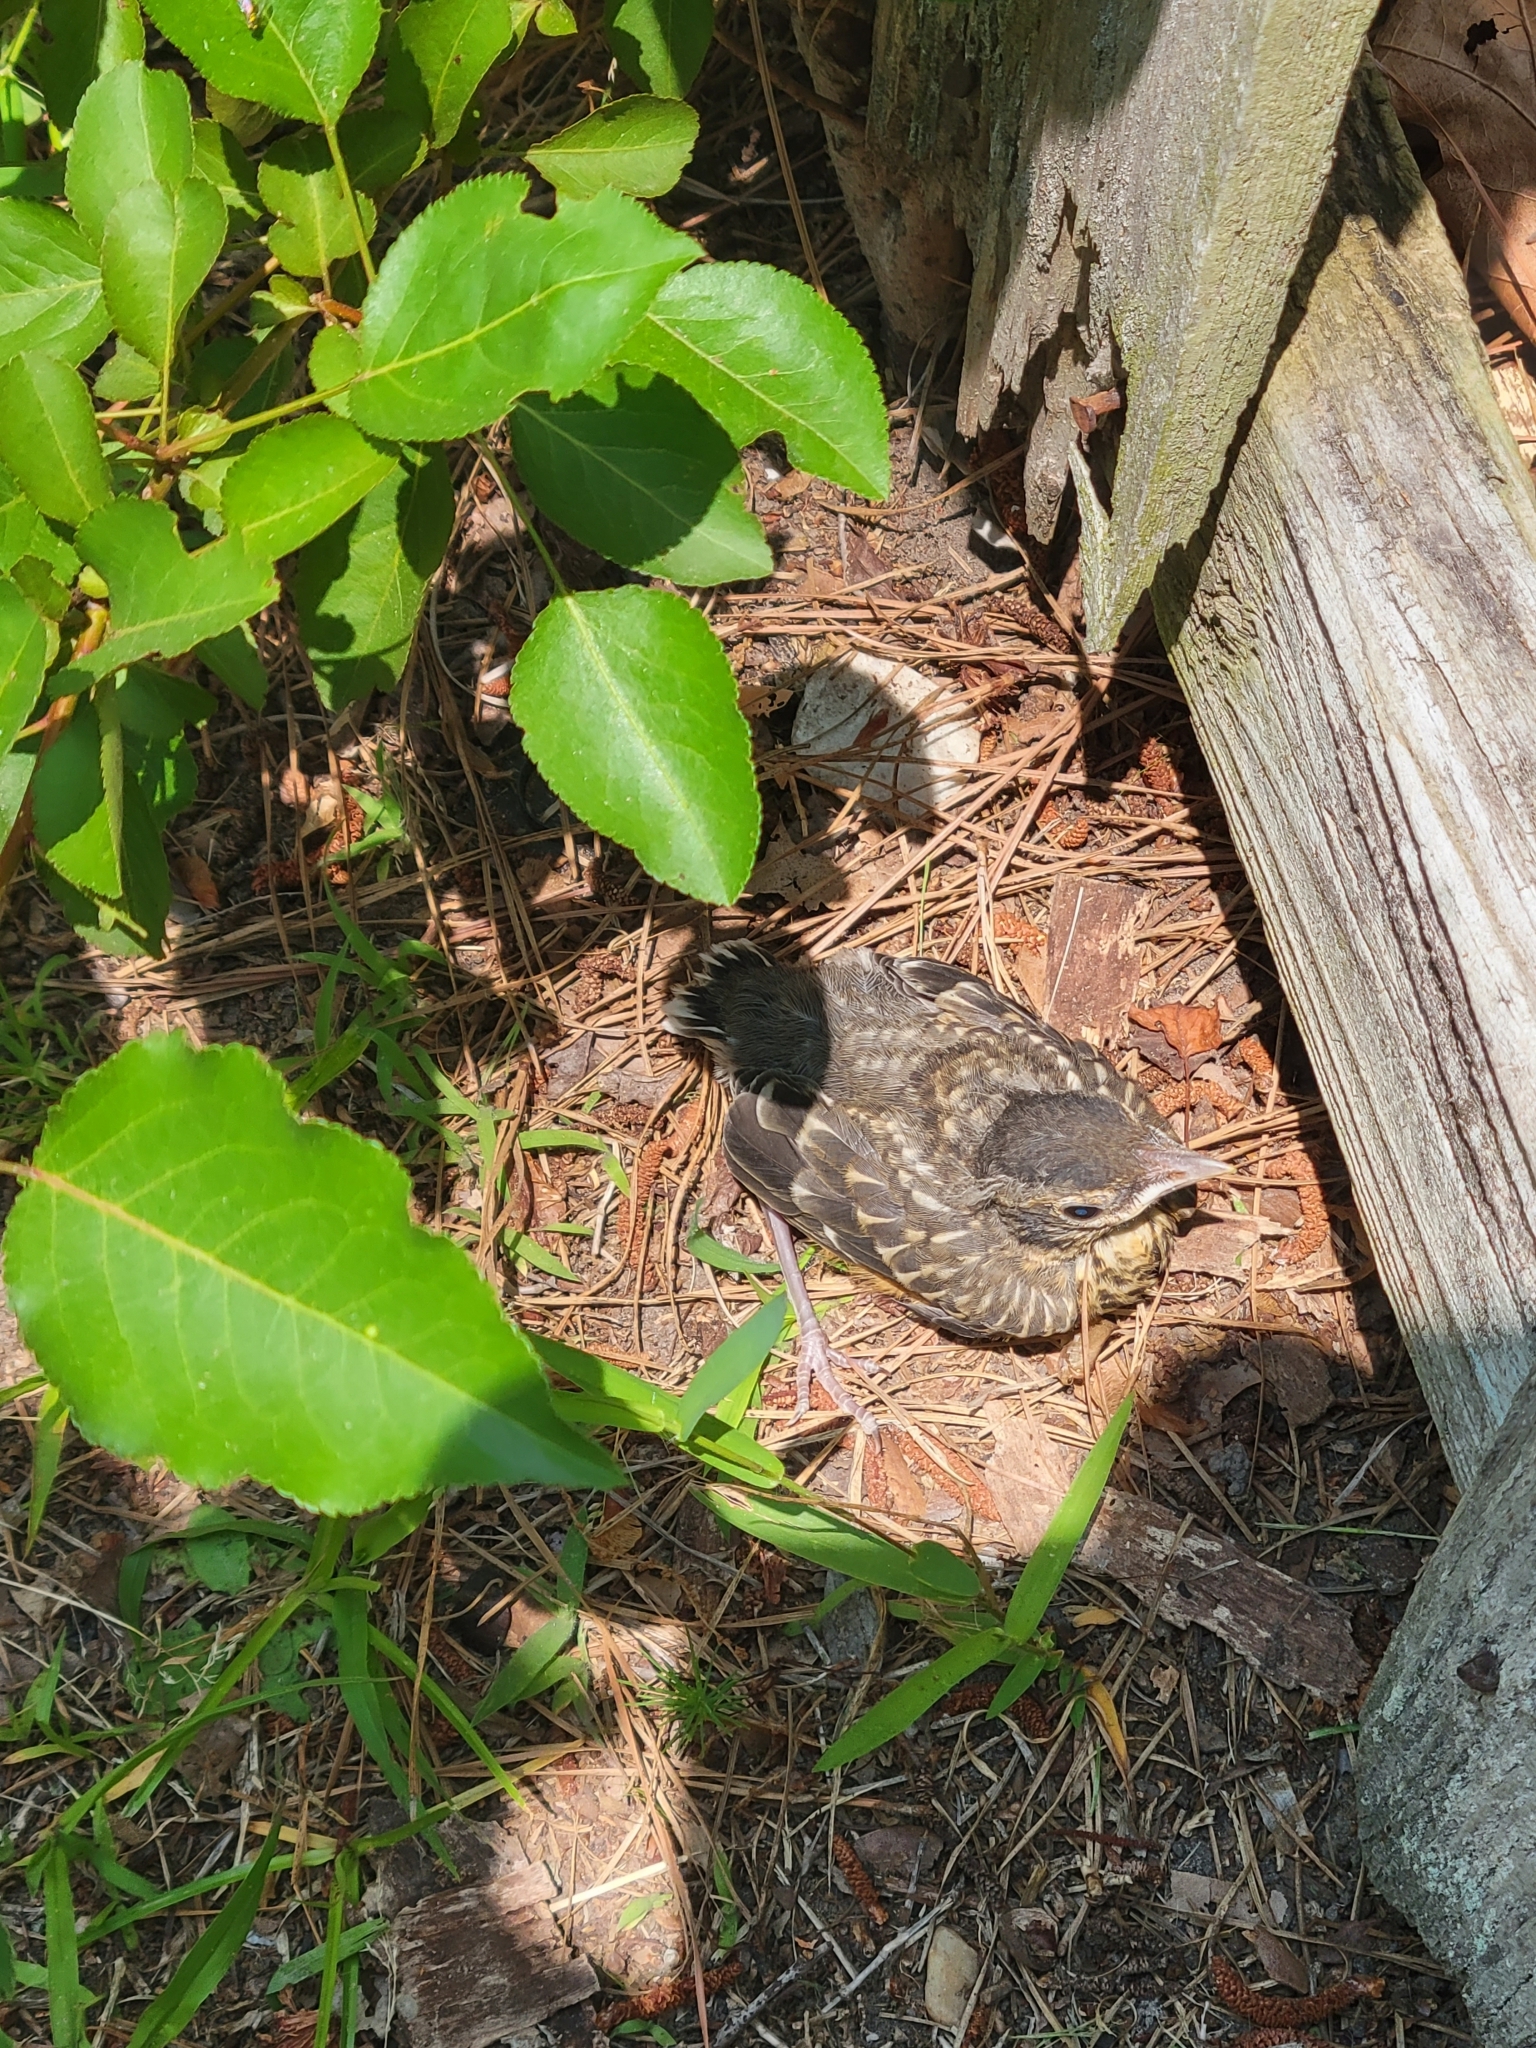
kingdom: Animalia
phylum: Chordata
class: Aves
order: Passeriformes
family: Turdidae
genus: Turdus
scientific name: Turdus migratorius
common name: American robin
